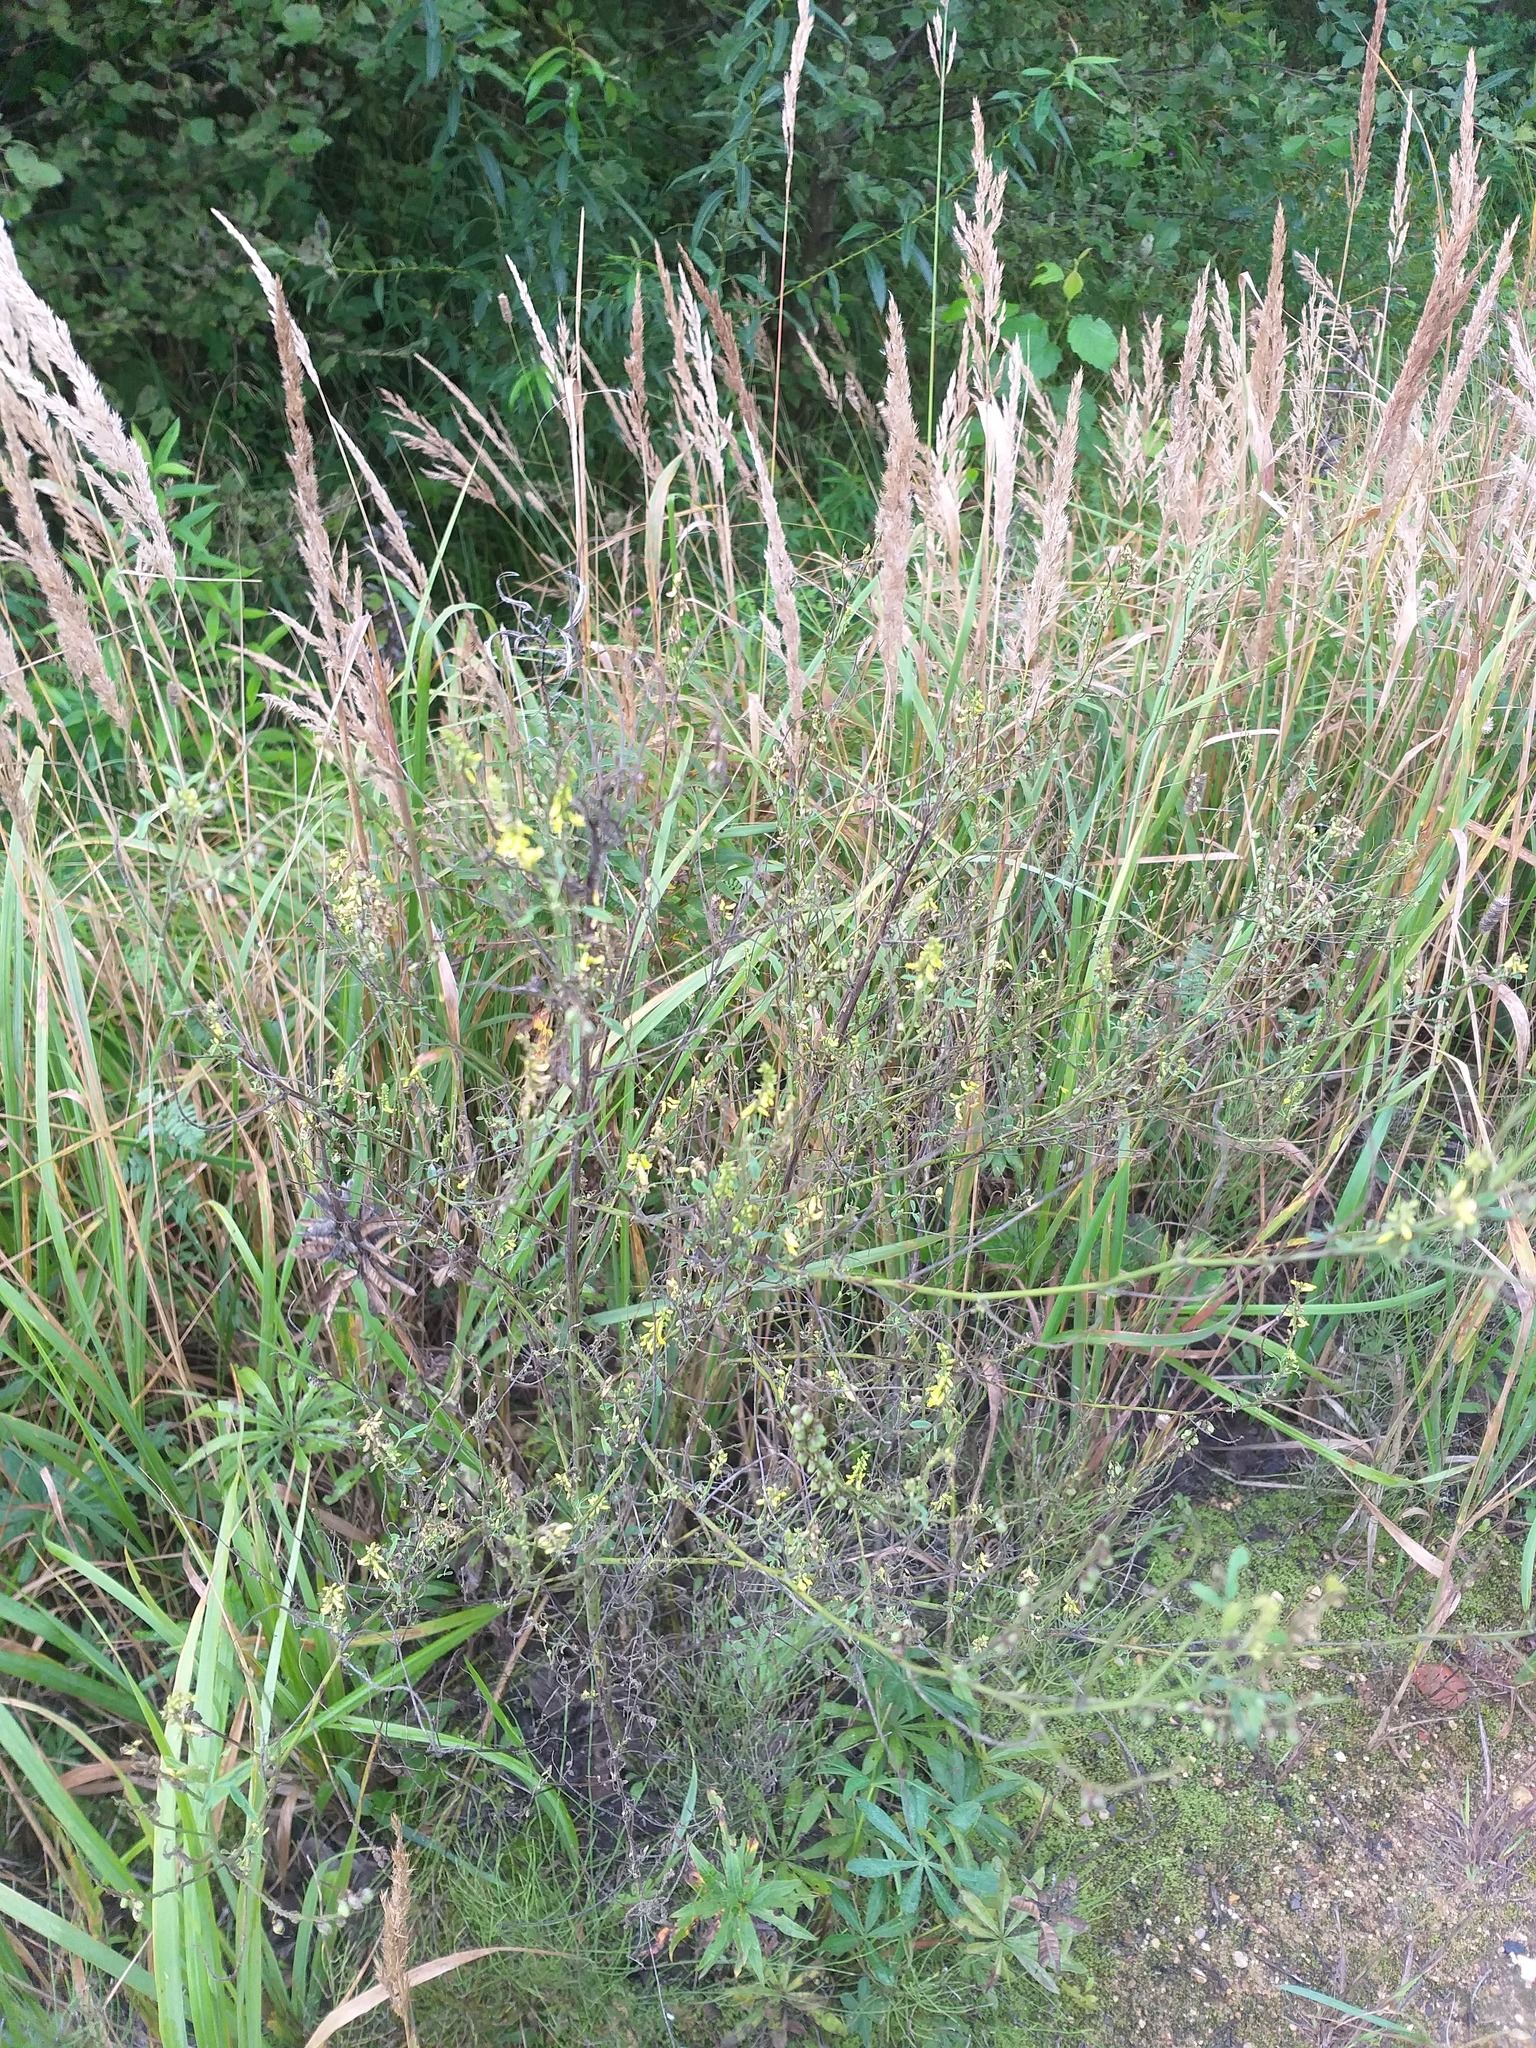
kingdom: Plantae
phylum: Tracheophyta
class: Magnoliopsida
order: Fabales
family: Fabaceae
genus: Melilotus
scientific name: Melilotus officinalis
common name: Sweetclover
